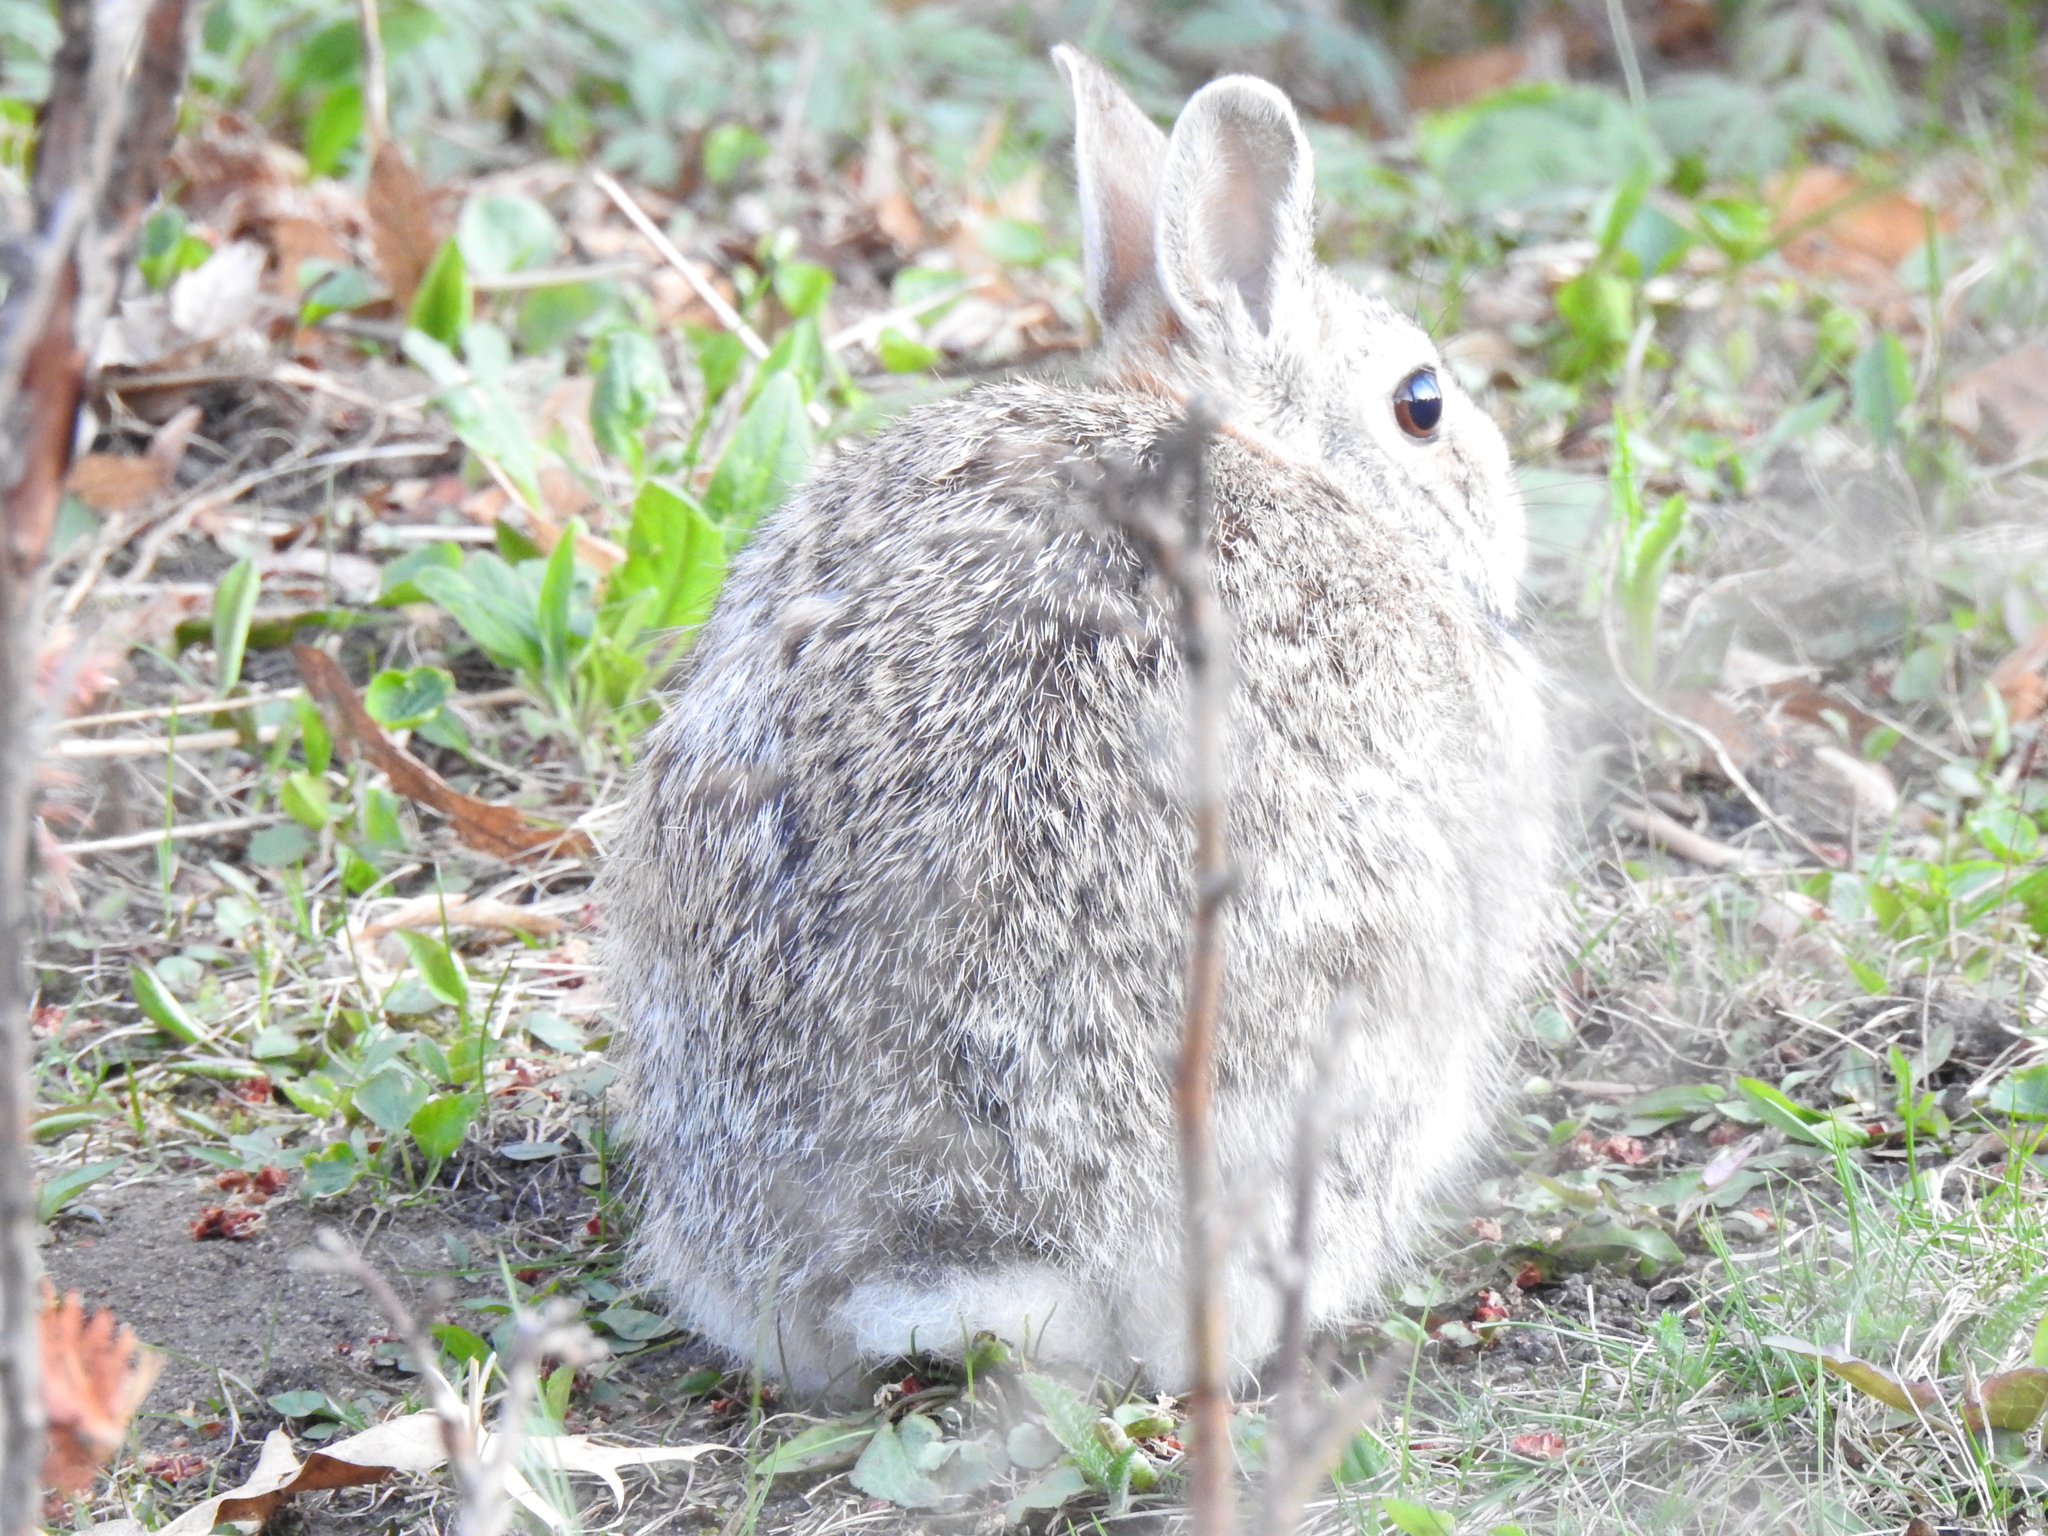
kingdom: Animalia
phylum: Chordata
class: Mammalia
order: Lagomorpha
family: Leporidae
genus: Sylvilagus
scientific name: Sylvilagus floridanus
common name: Eastern cottontail
